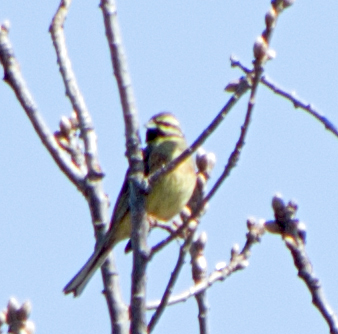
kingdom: Animalia
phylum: Chordata
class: Aves
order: Passeriformes
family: Emberizidae
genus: Emberiza
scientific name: Emberiza cirlus
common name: Cirl bunting
